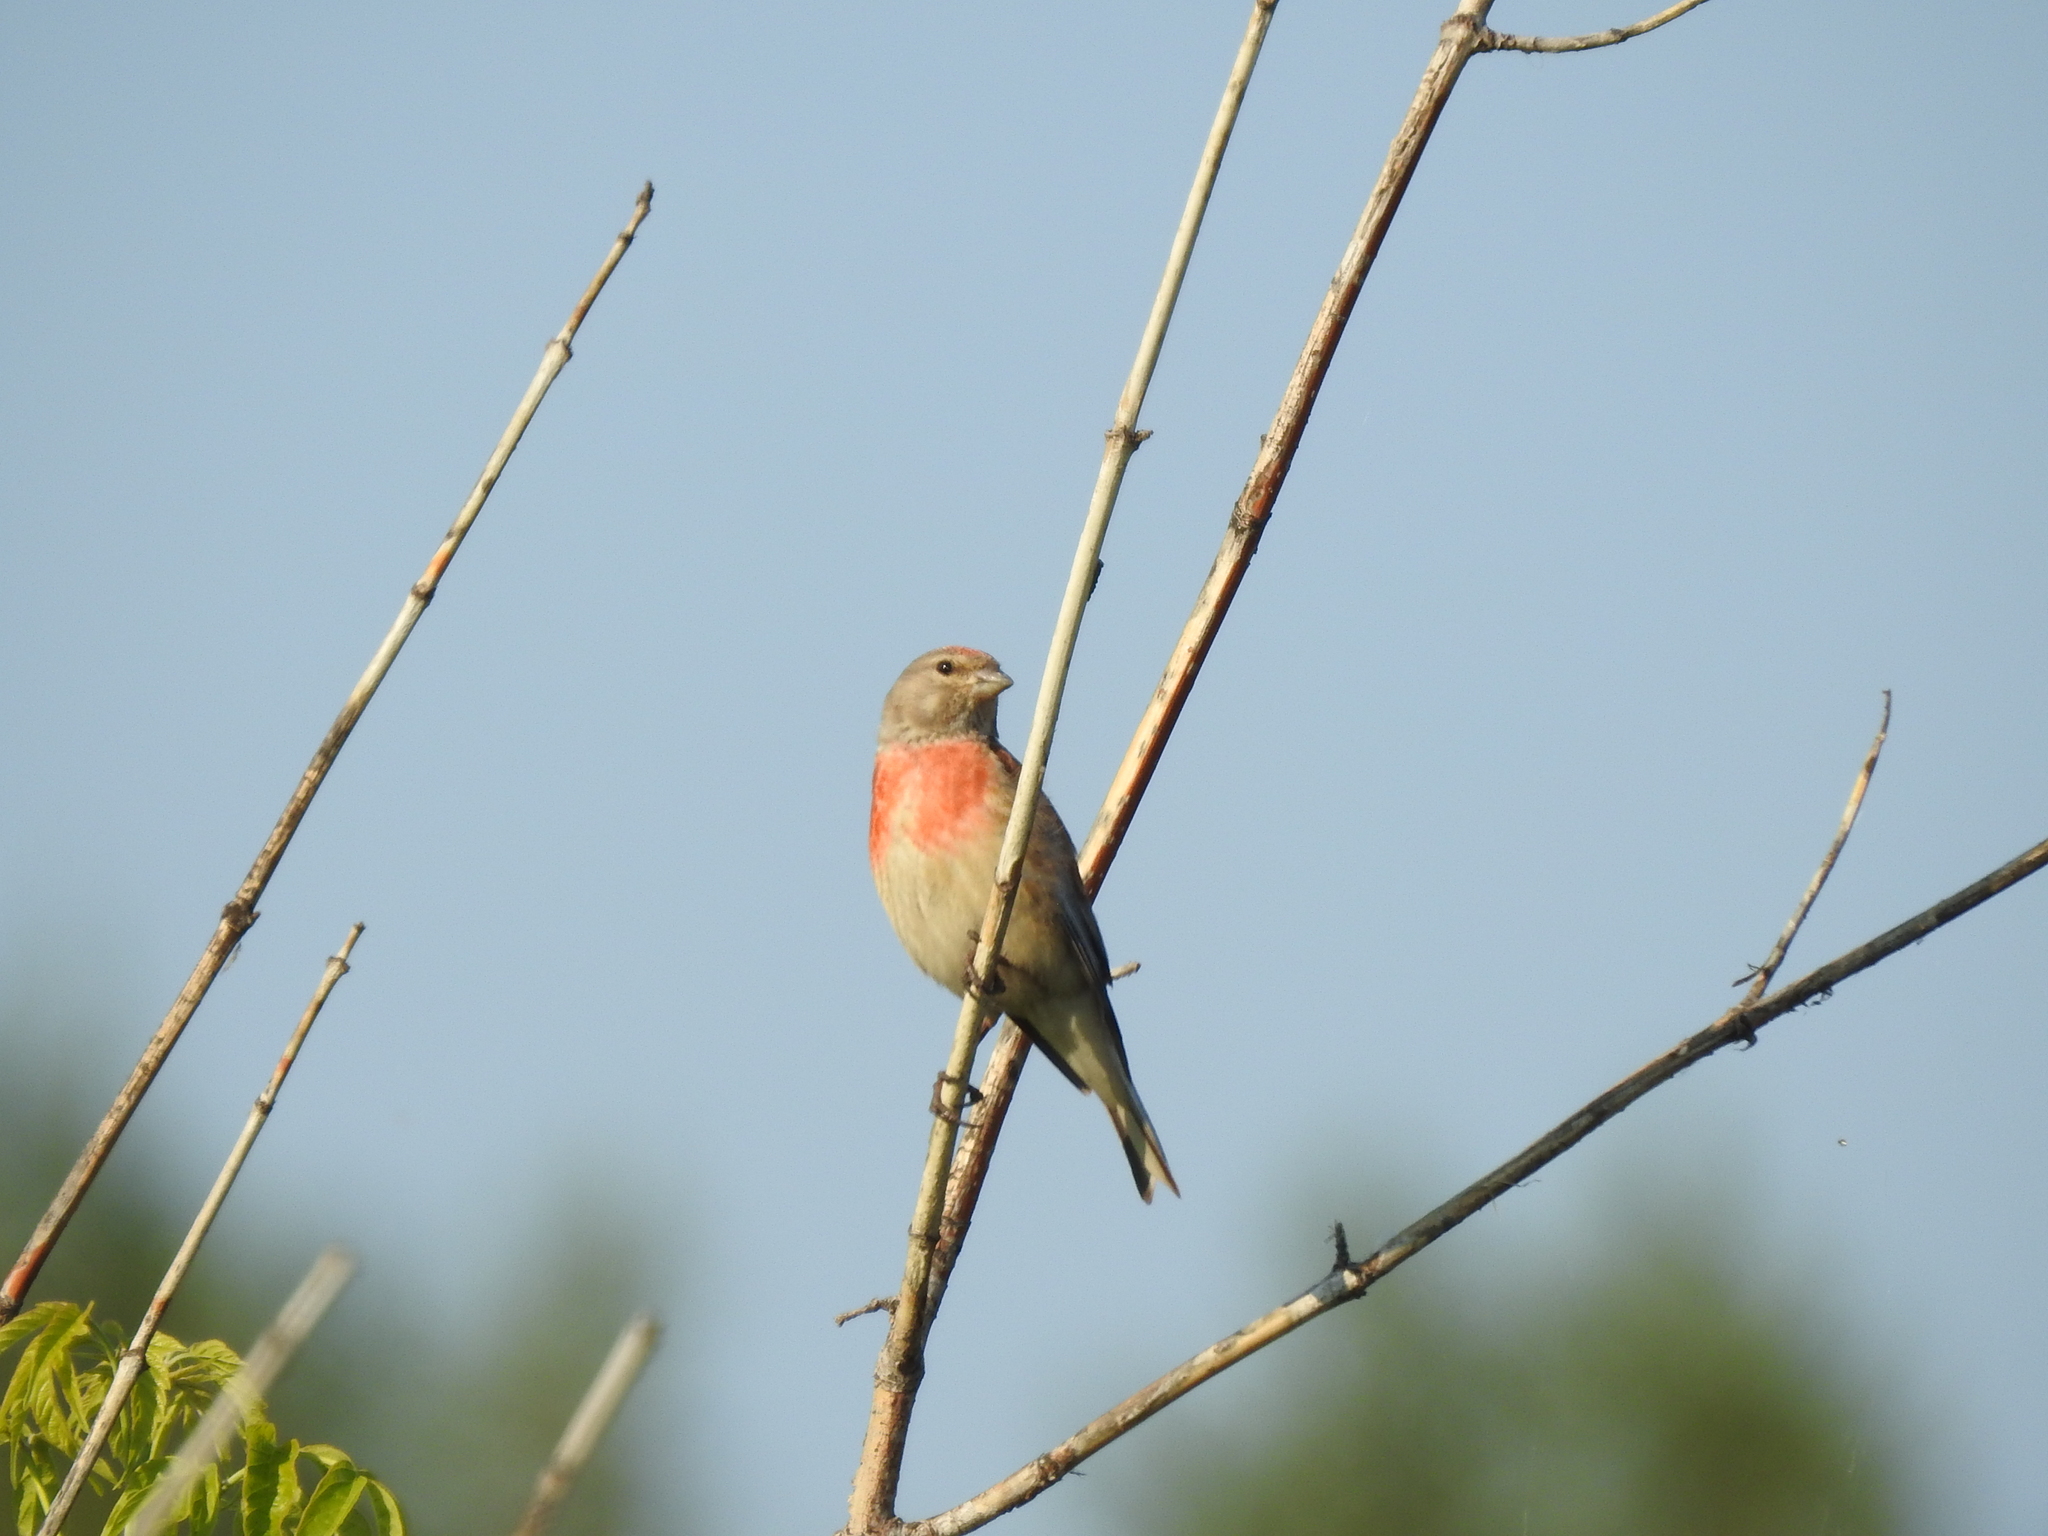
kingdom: Animalia
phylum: Chordata
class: Aves
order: Passeriformes
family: Fringillidae
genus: Linaria
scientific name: Linaria cannabina
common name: Common linnet
